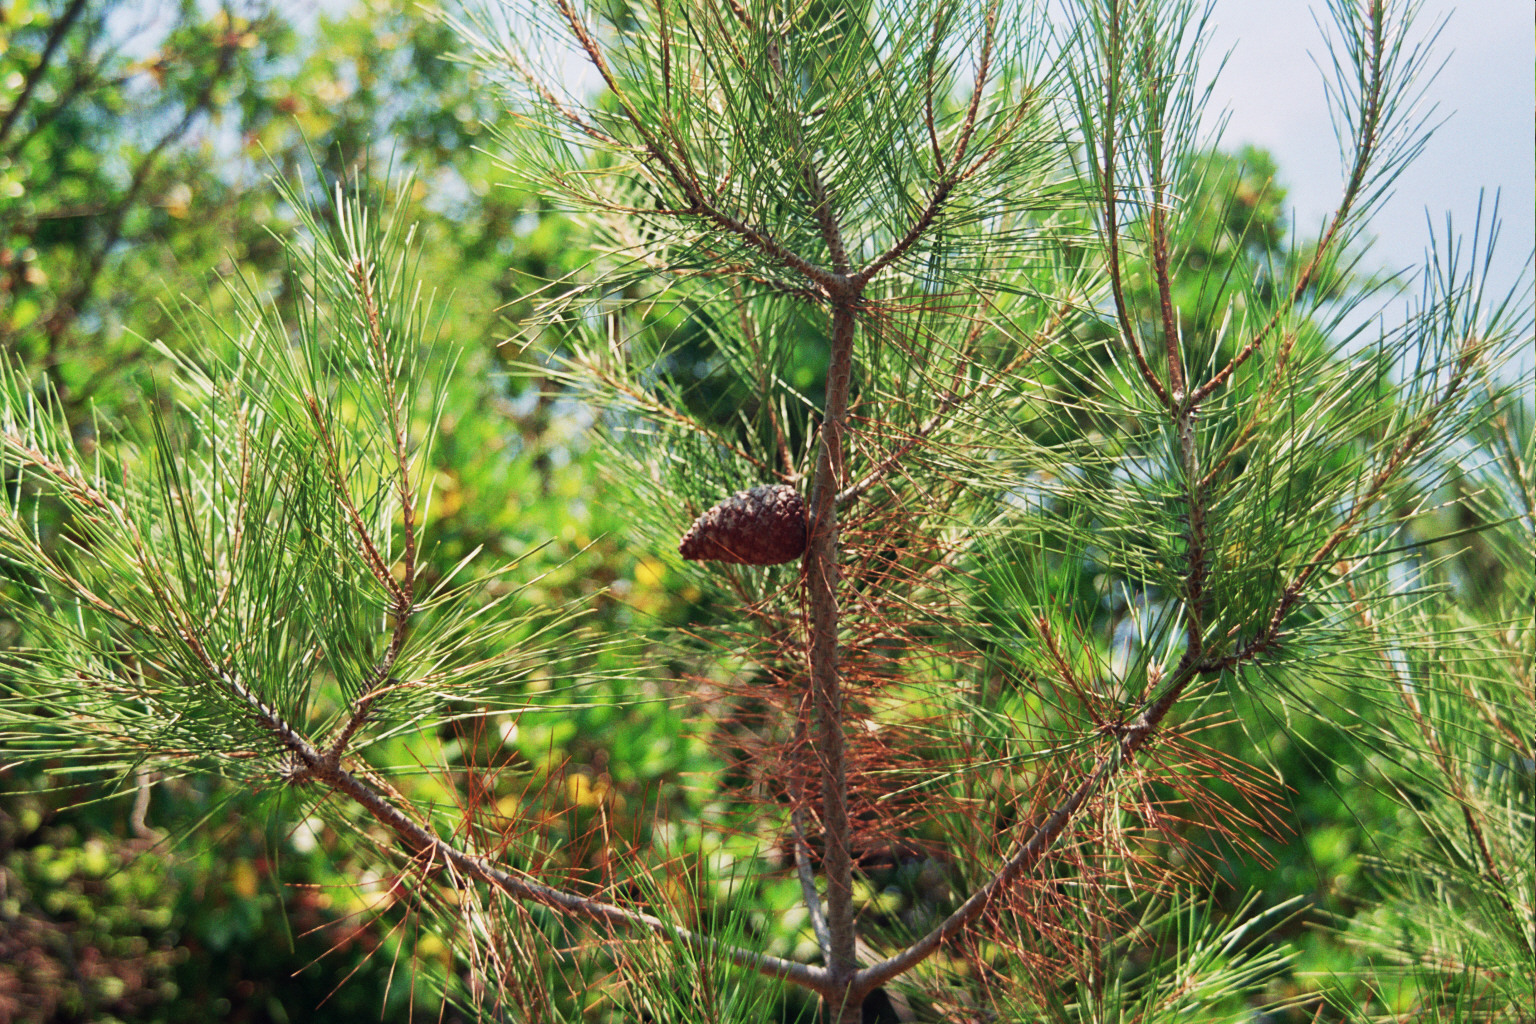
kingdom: Plantae
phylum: Tracheophyta
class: Pinopsida
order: Pinales
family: Pinaceae
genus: Pinus
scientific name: Pinus brutia
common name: Turkish pine
